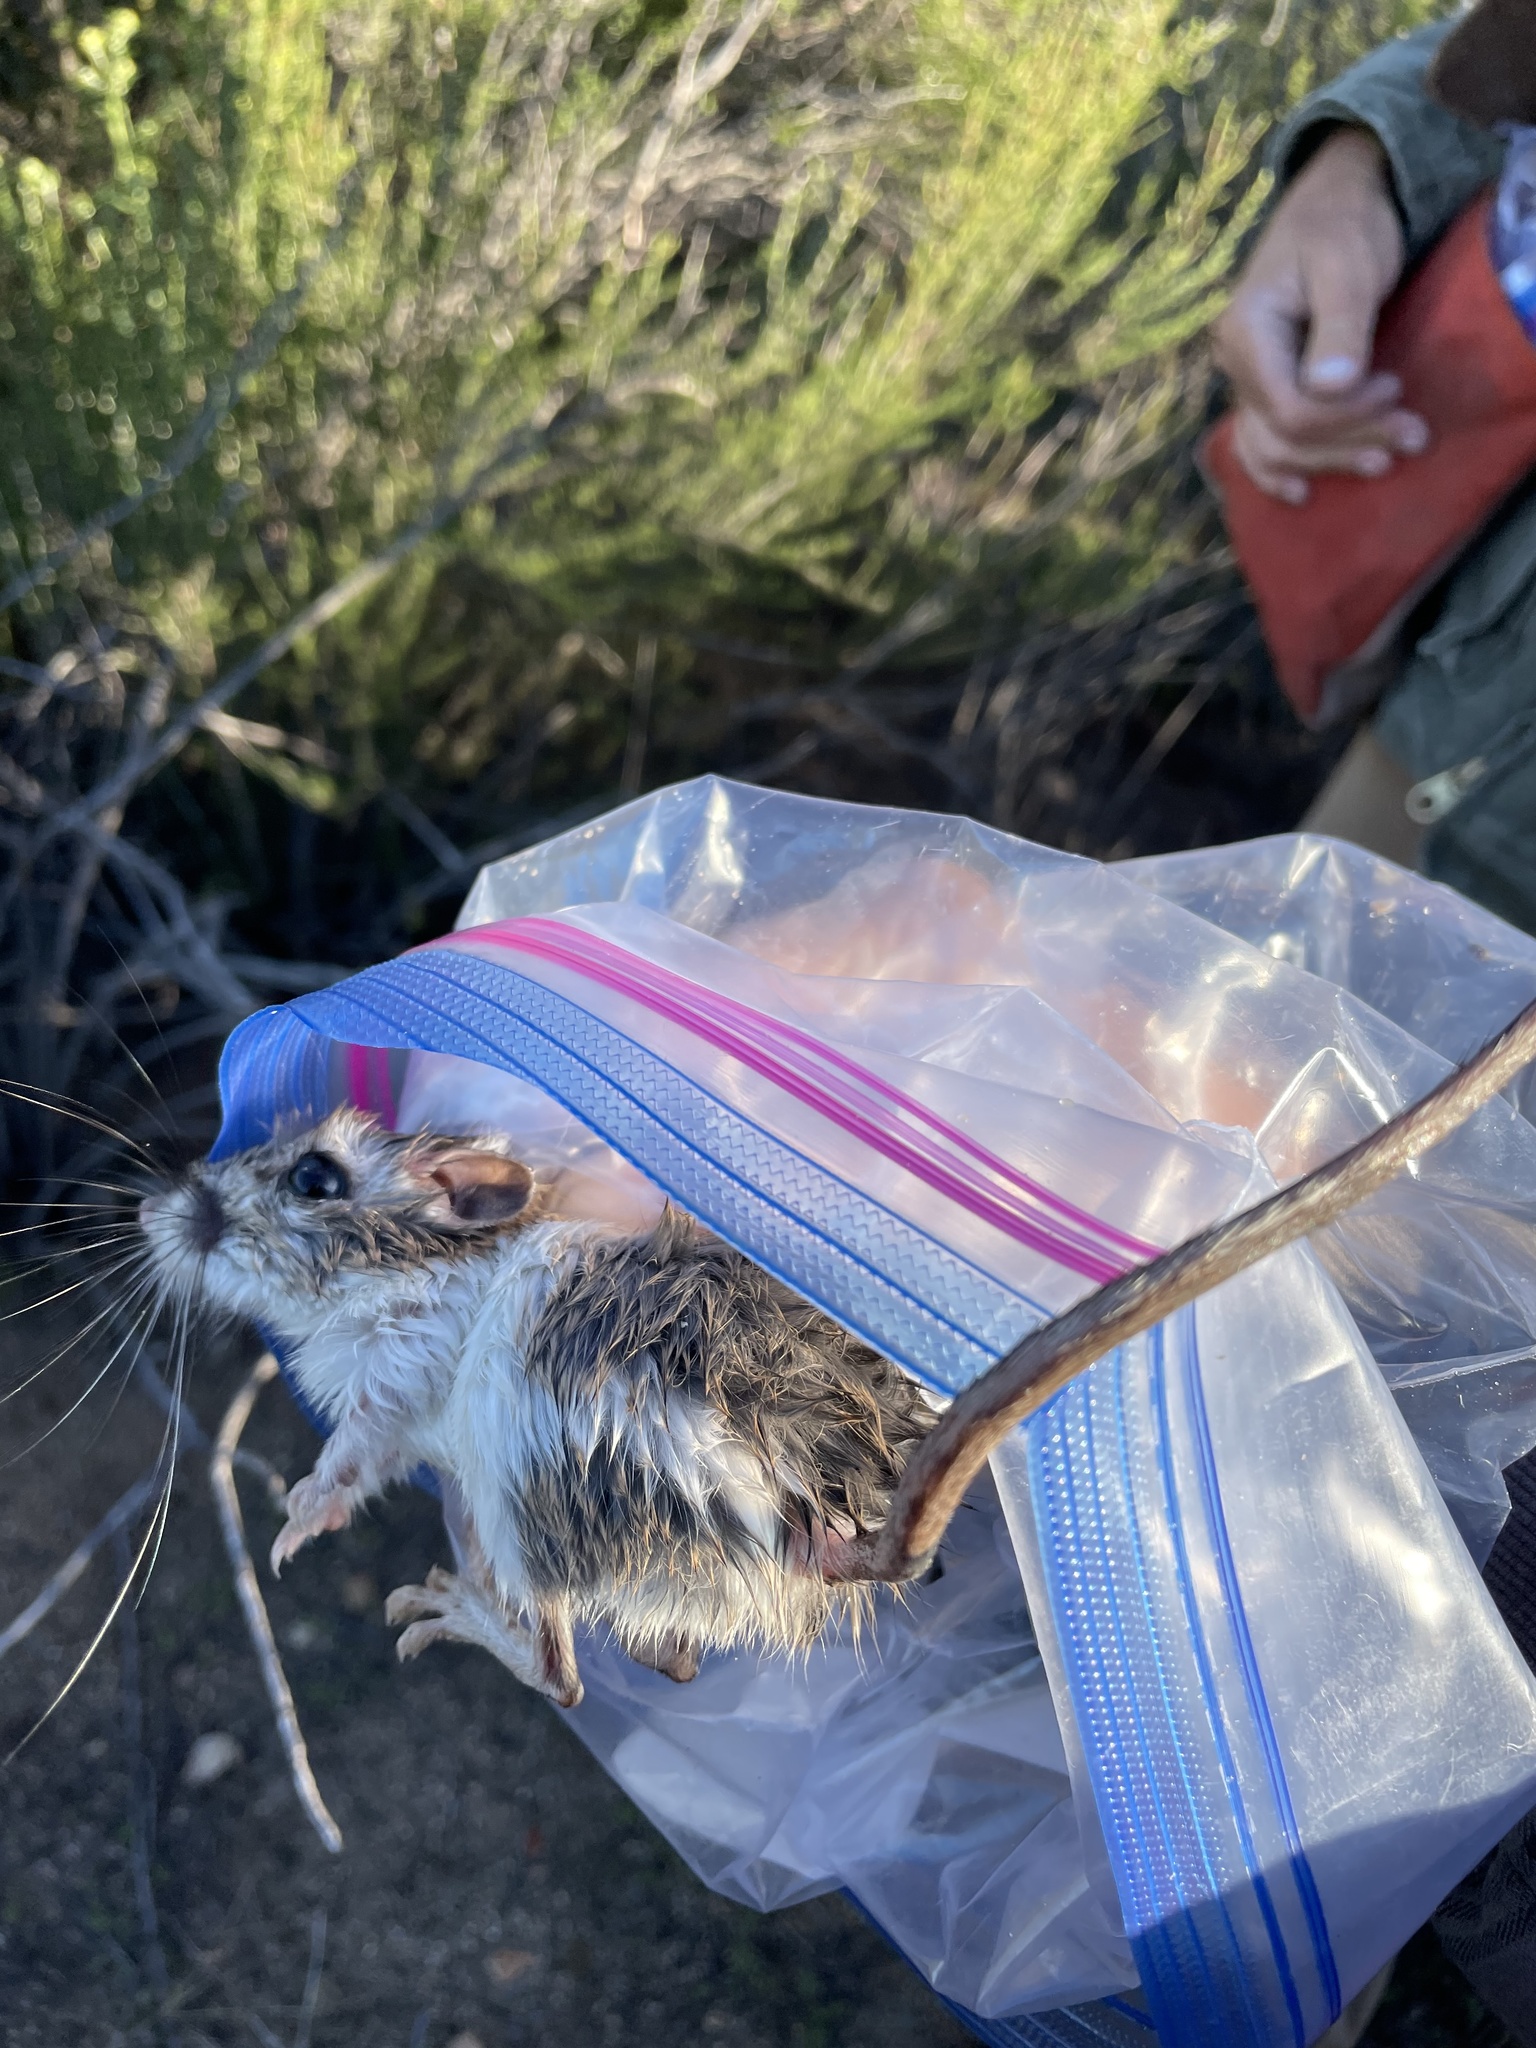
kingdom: Animalia
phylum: Chordata
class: Mammalia
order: Rodentia
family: Heteromyidae
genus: Dipodomys
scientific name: Dipodomys simulans
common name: Dulzura kangaroo rat
